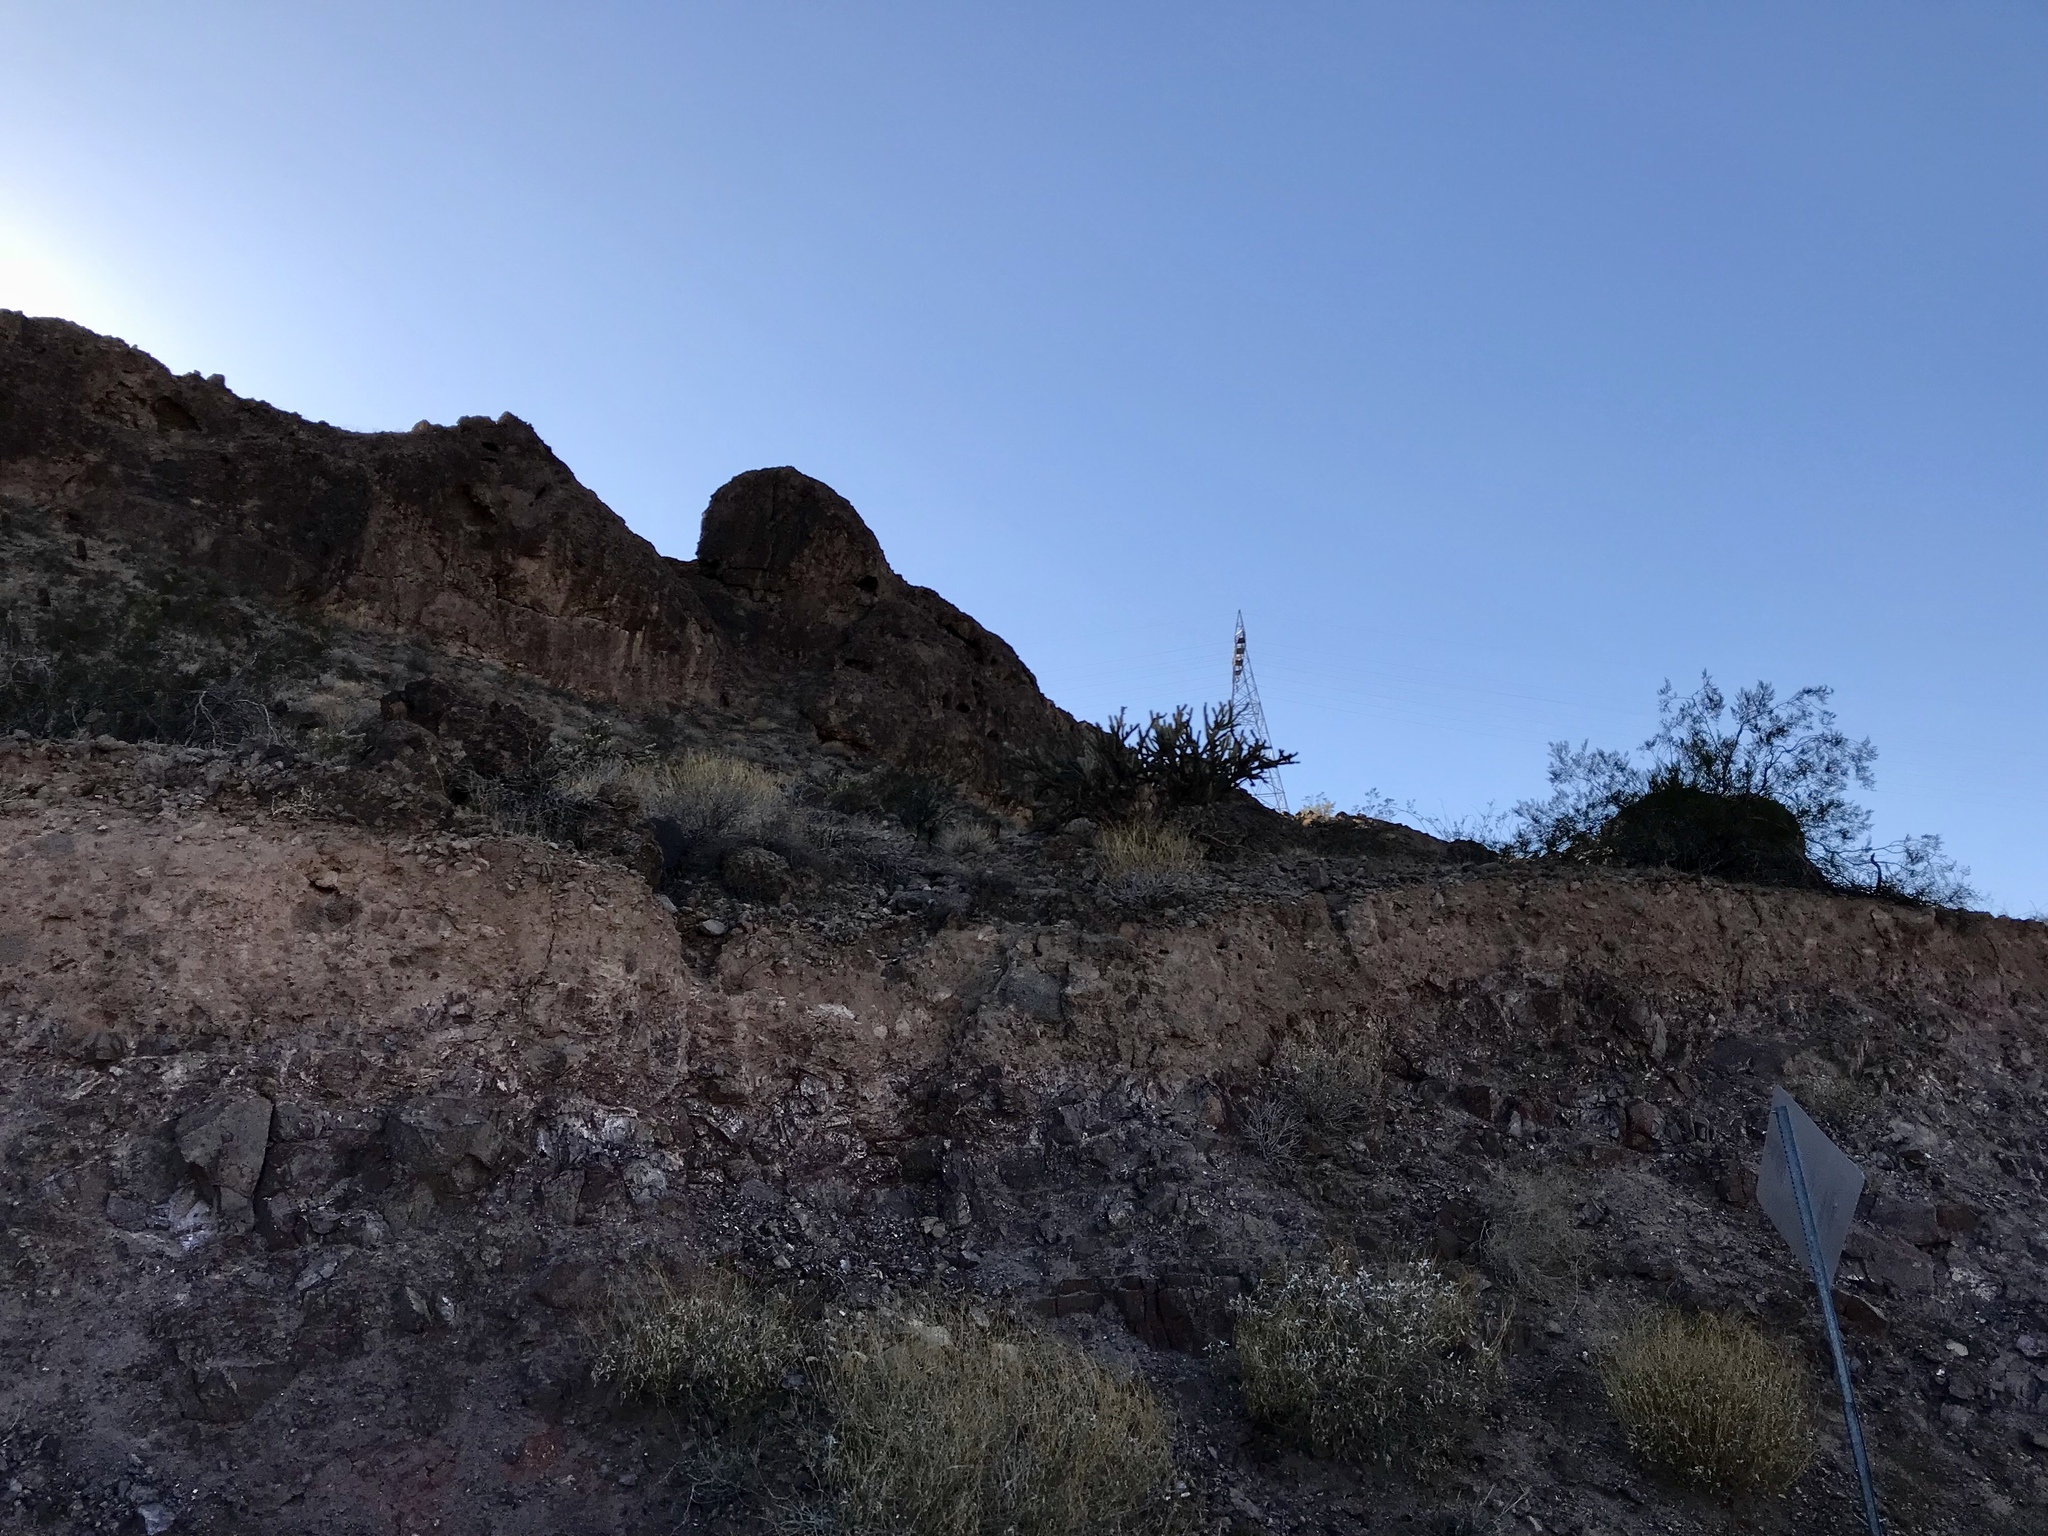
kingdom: Plantae
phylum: Tracheophyta
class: Magnoliopsida
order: Caryophyllales
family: Cactaceae
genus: Cylindropuntia
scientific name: Cylindropuntia acanthocarpa
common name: Buckhorn cholla
